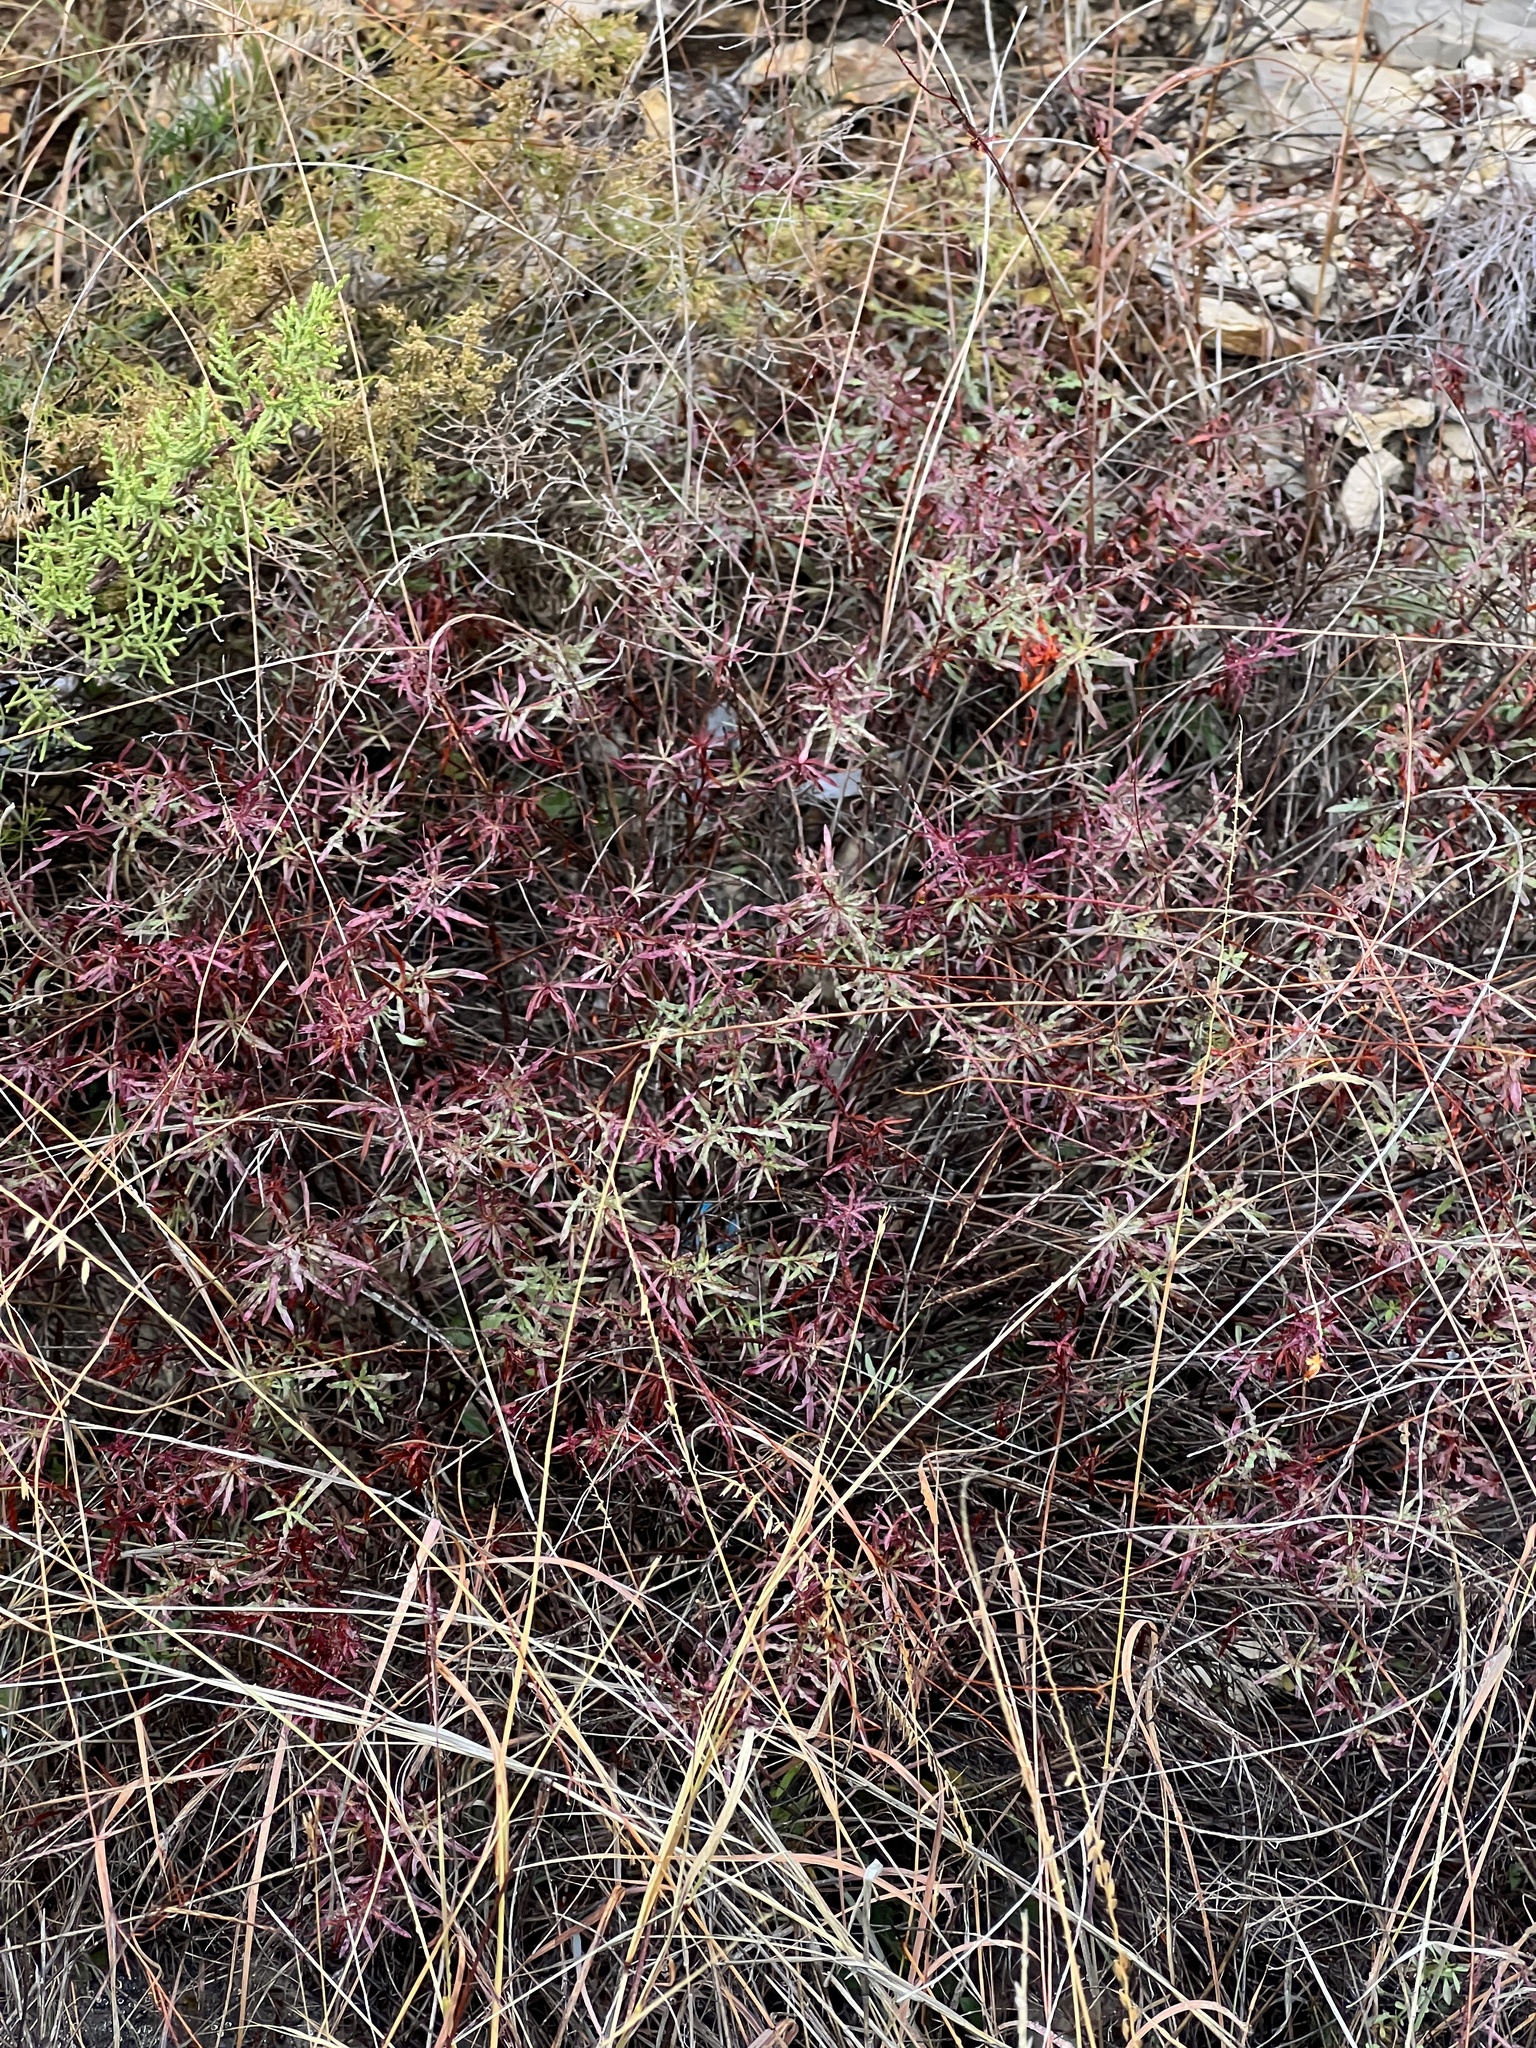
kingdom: Plantae
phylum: Tracheophyta
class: Magnoliopsida
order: Malpighiales
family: Euphorbiaceae
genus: Stillingia
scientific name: Stillingia texana
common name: Texas stillingia
